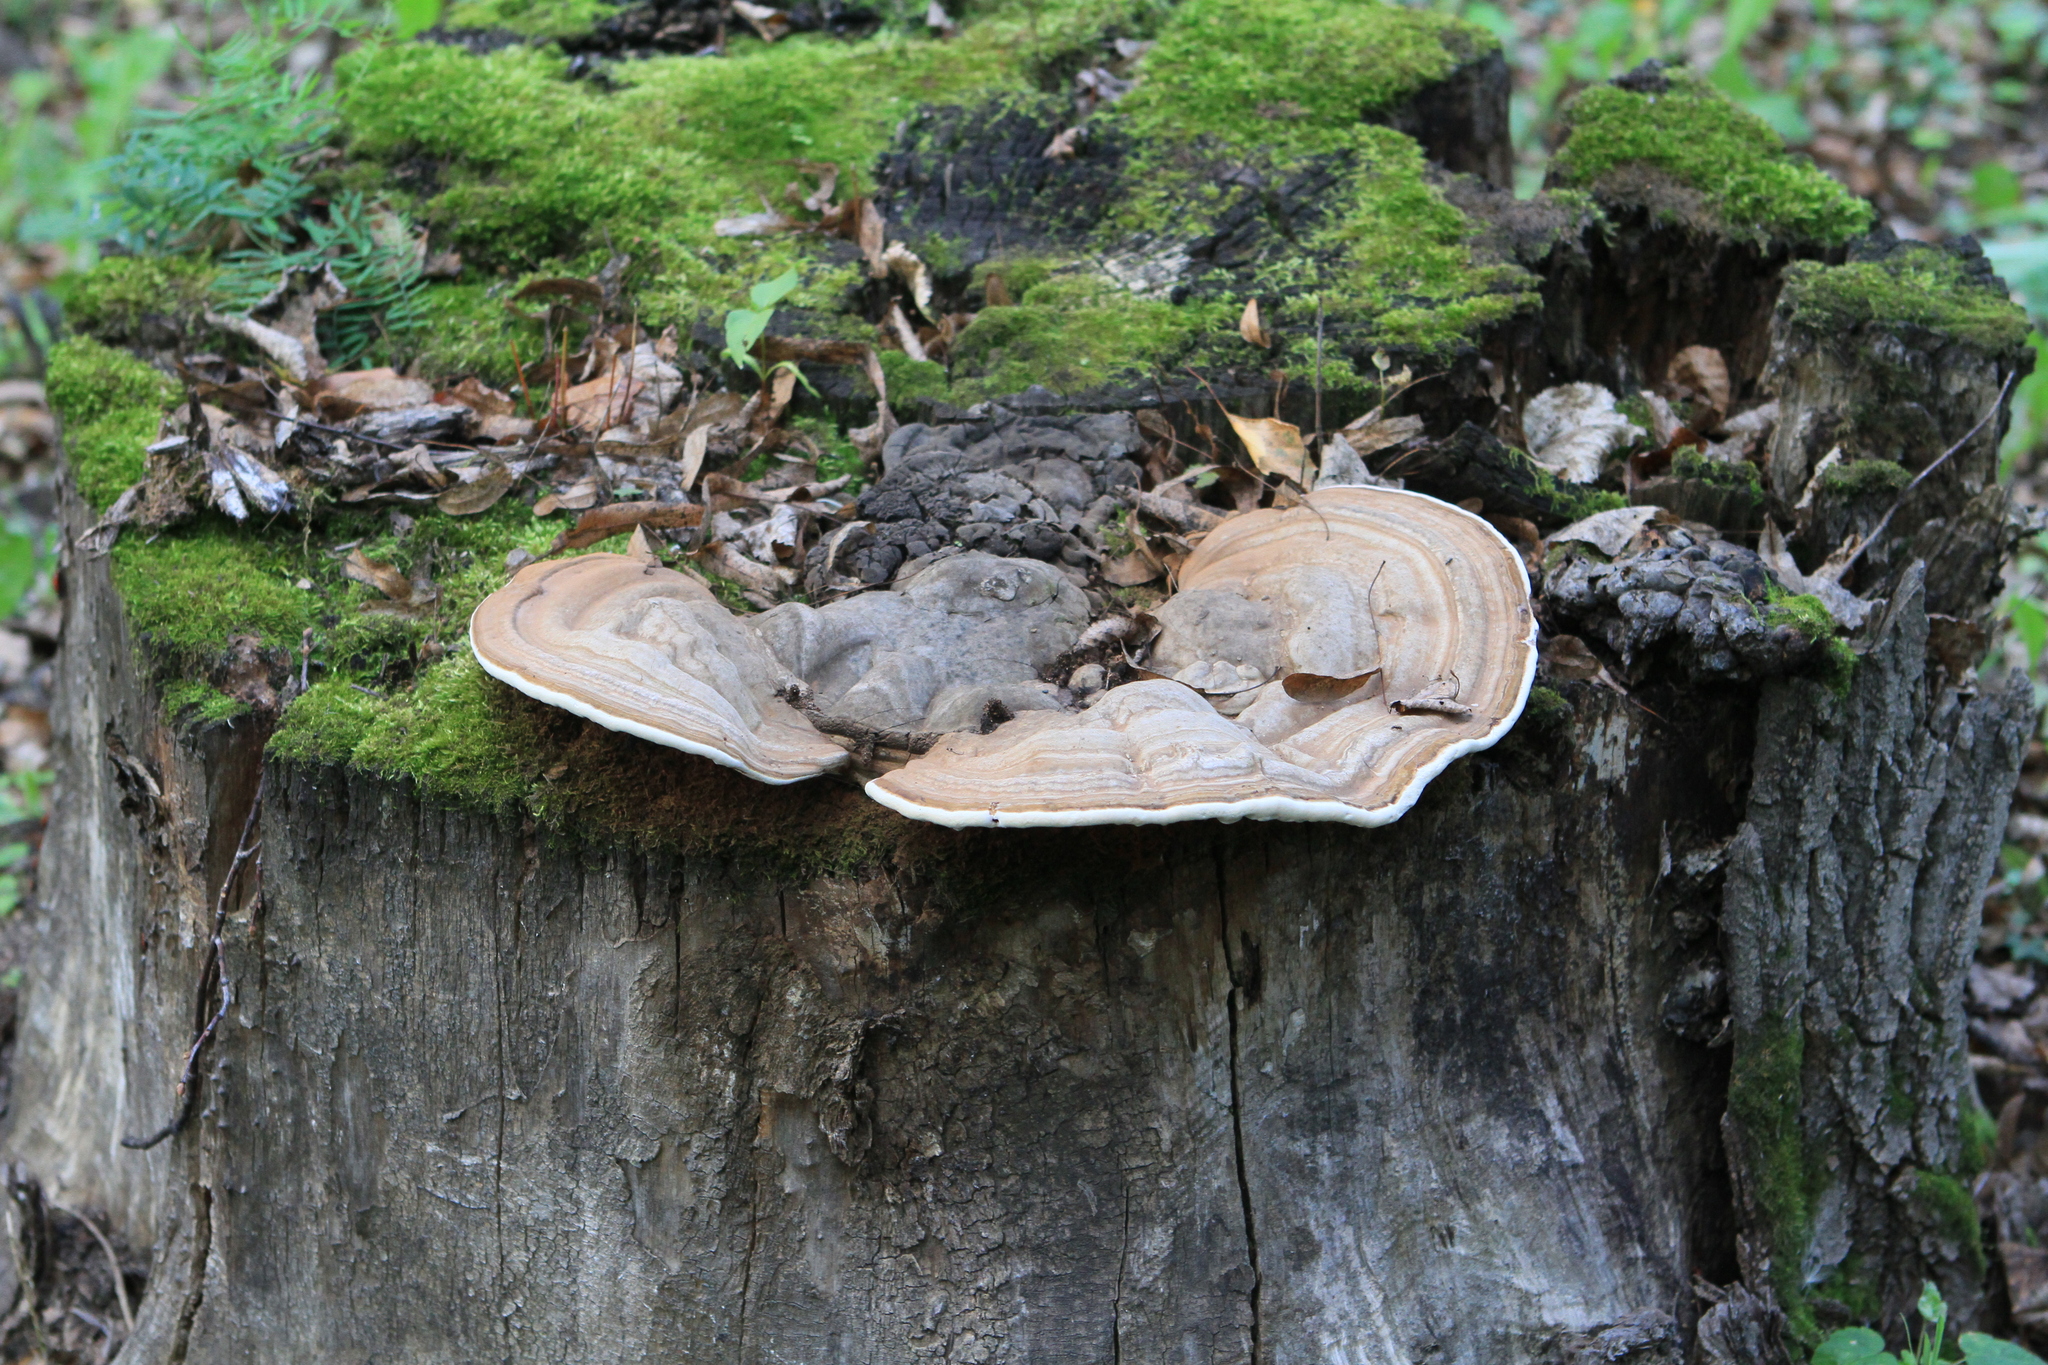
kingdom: Fungi
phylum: Basidiomycota
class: Agaricomycetes
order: Polyporales
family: Polyporaceae
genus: Ganoderma
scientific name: Ganoderma applanatum
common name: Artist's bracket
